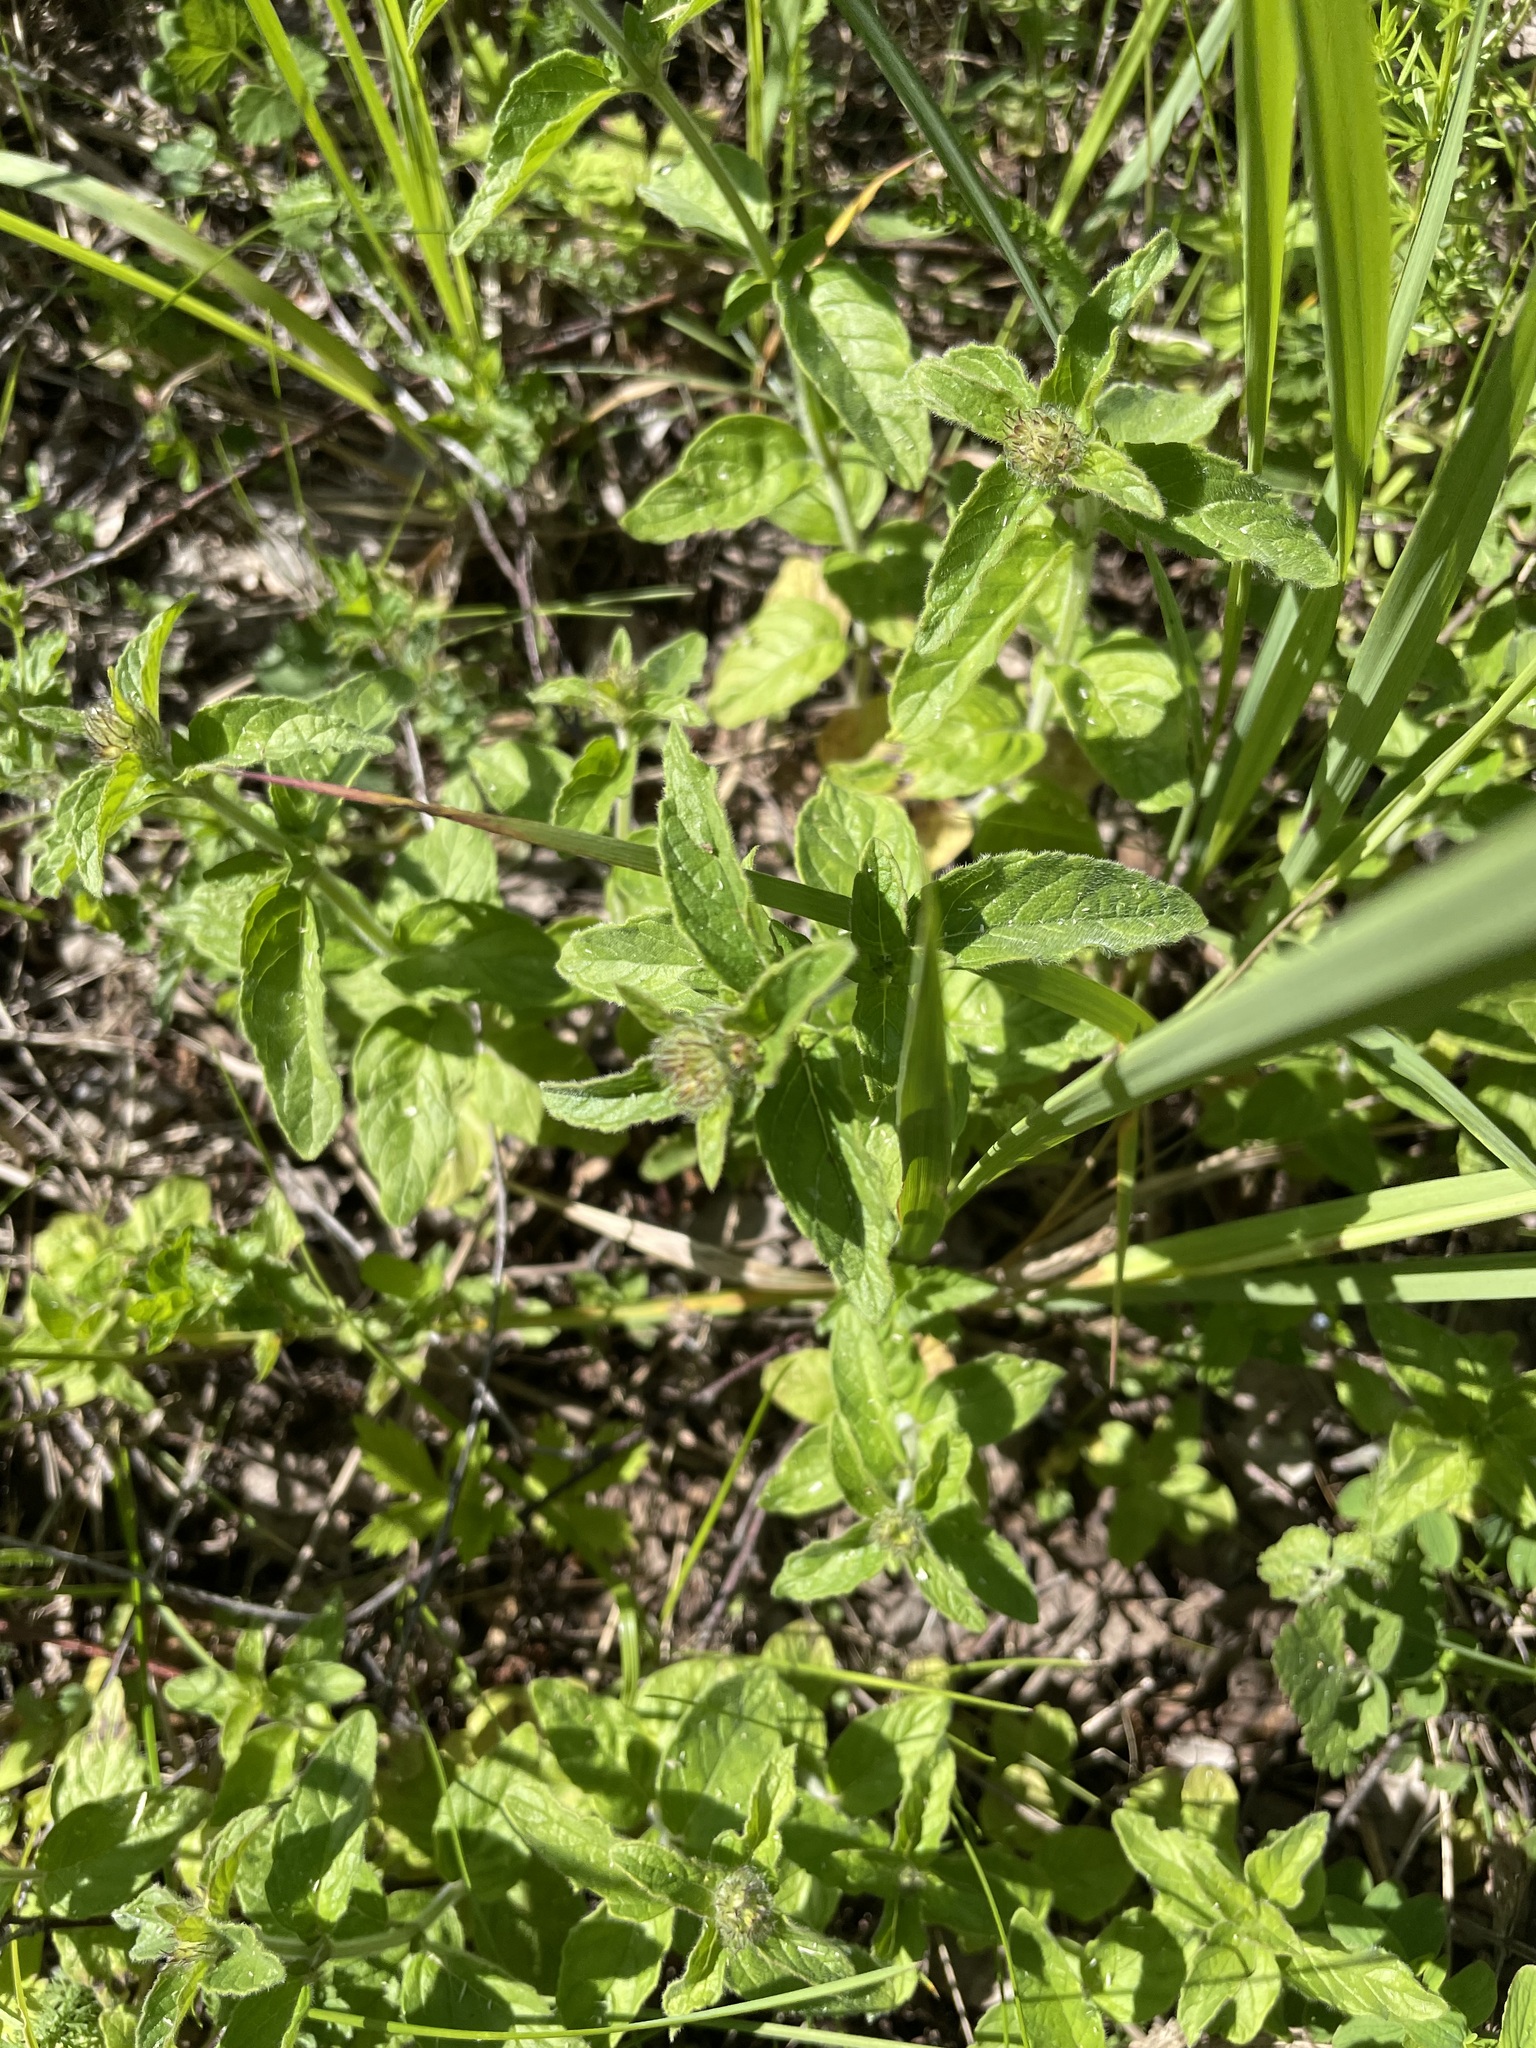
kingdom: Plantae
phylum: Tracheophyta
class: Magnoliopsida
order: Lamiales
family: Lamiaceae
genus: Origanum
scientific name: Origanum vulgare
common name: Wild marjoram
